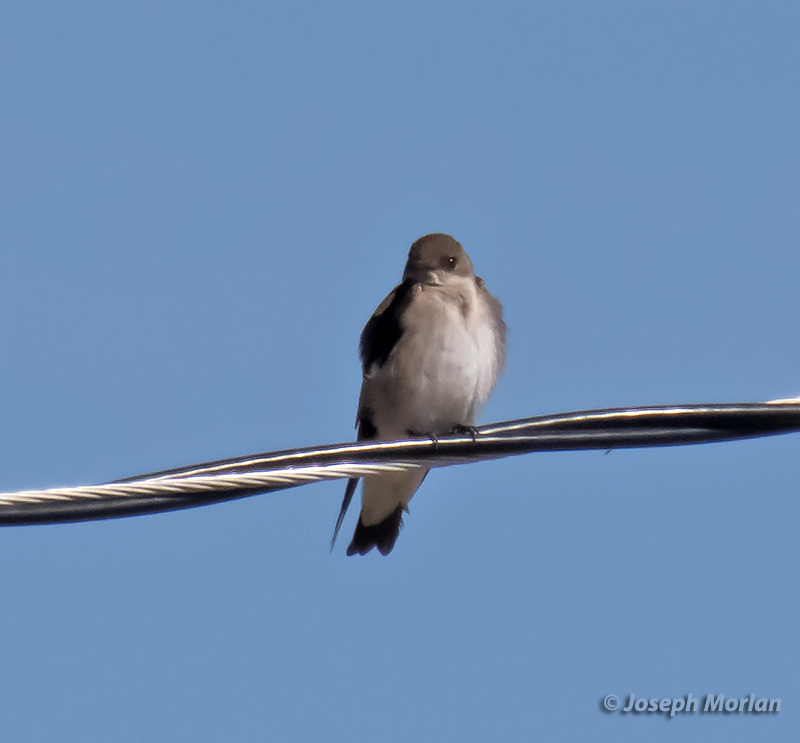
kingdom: Animalia
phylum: Chordata
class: Aves
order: Passeriformes
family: Hirundinidae
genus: Stelgidopteryx
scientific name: Stelgidopteryx serripennis
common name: Northern rough-winged swallow
